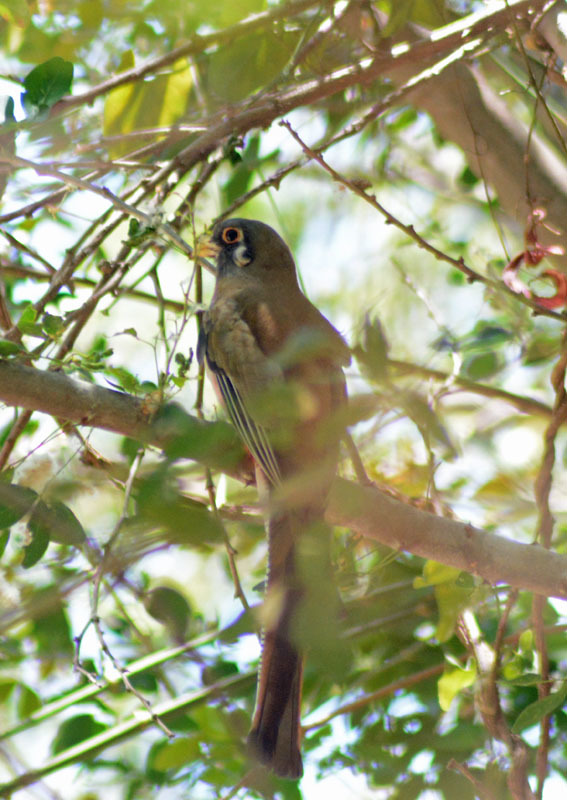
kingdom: Animalia
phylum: Chordata
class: Aves
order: Trogoniformes
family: Trogonidae
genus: Trogon
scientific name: Trogon elegans
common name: Elegant trogon
